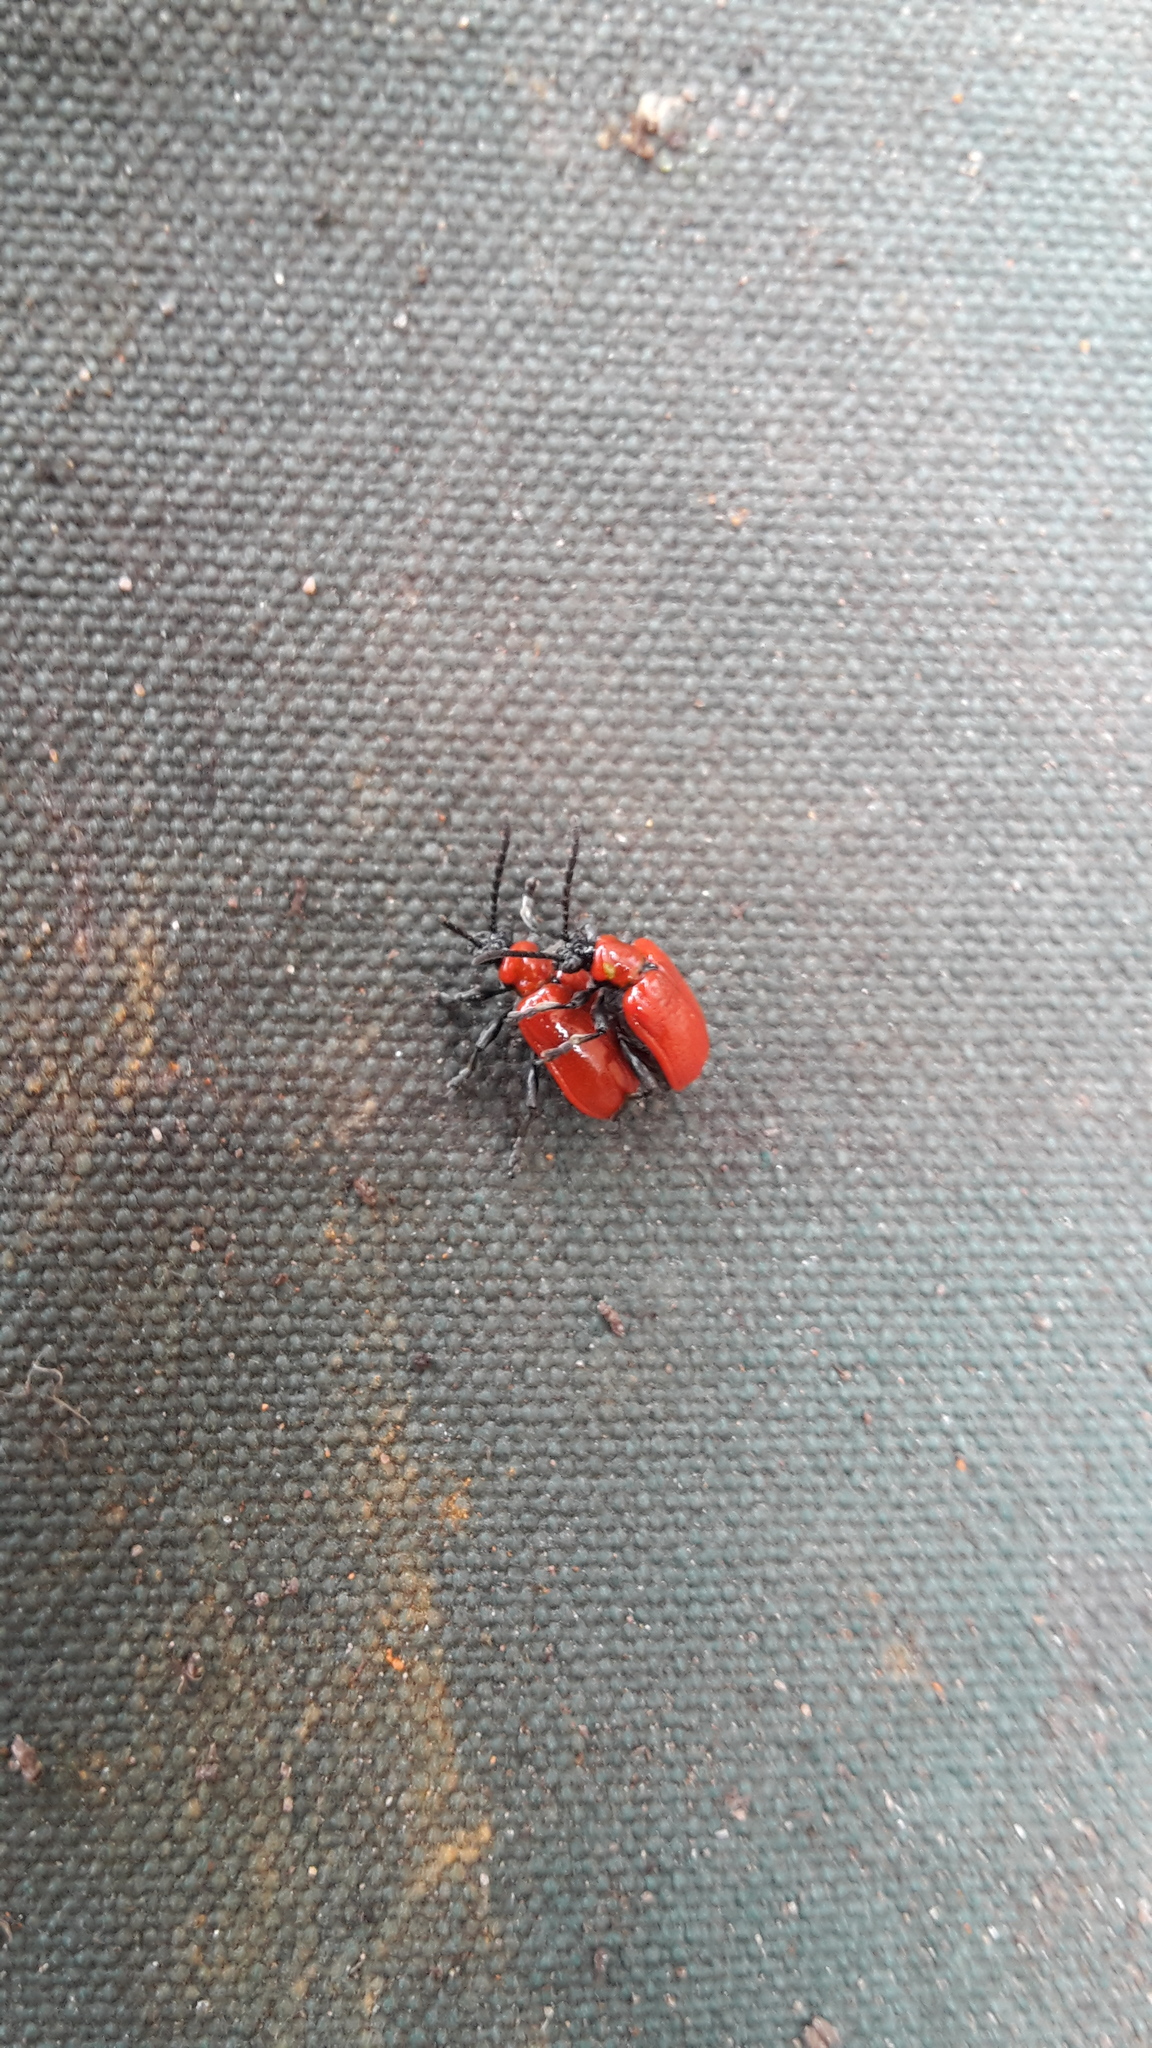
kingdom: Animalia
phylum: Arthropoda
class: Insecta
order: Coleoptera
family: Chrysomelidae
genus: Lilioceris
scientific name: Lilioceris lilii
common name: Lily beetle
